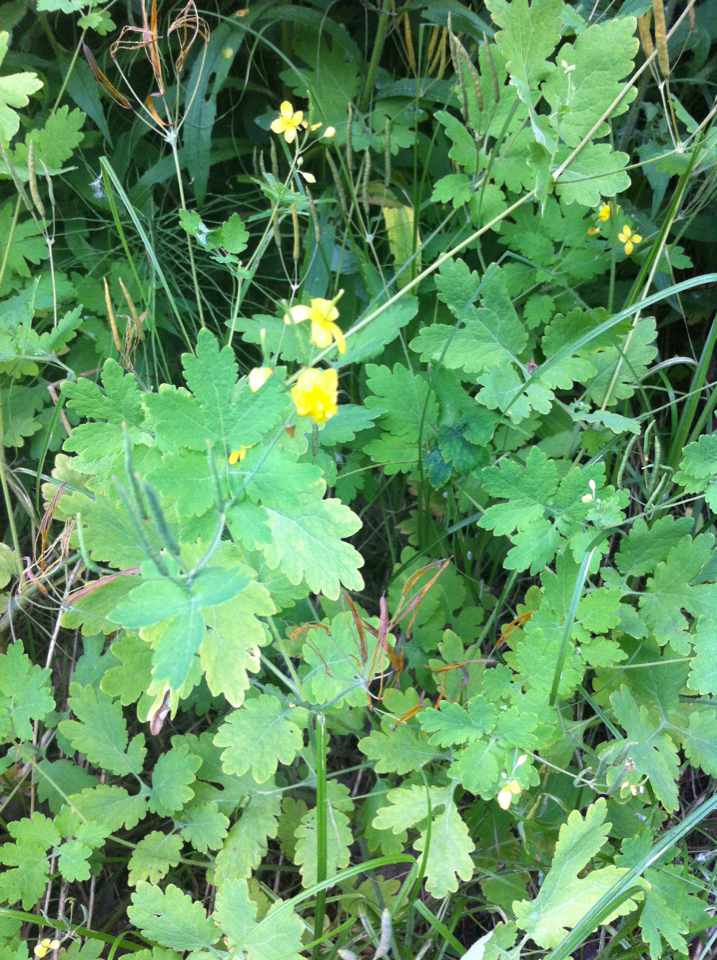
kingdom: Plantae
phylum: Tracheophyta
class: Magnoliopsida
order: Ranunculales
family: Papaveraceae
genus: Chelidonium
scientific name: Chelidonium majus
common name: Greater celandine
